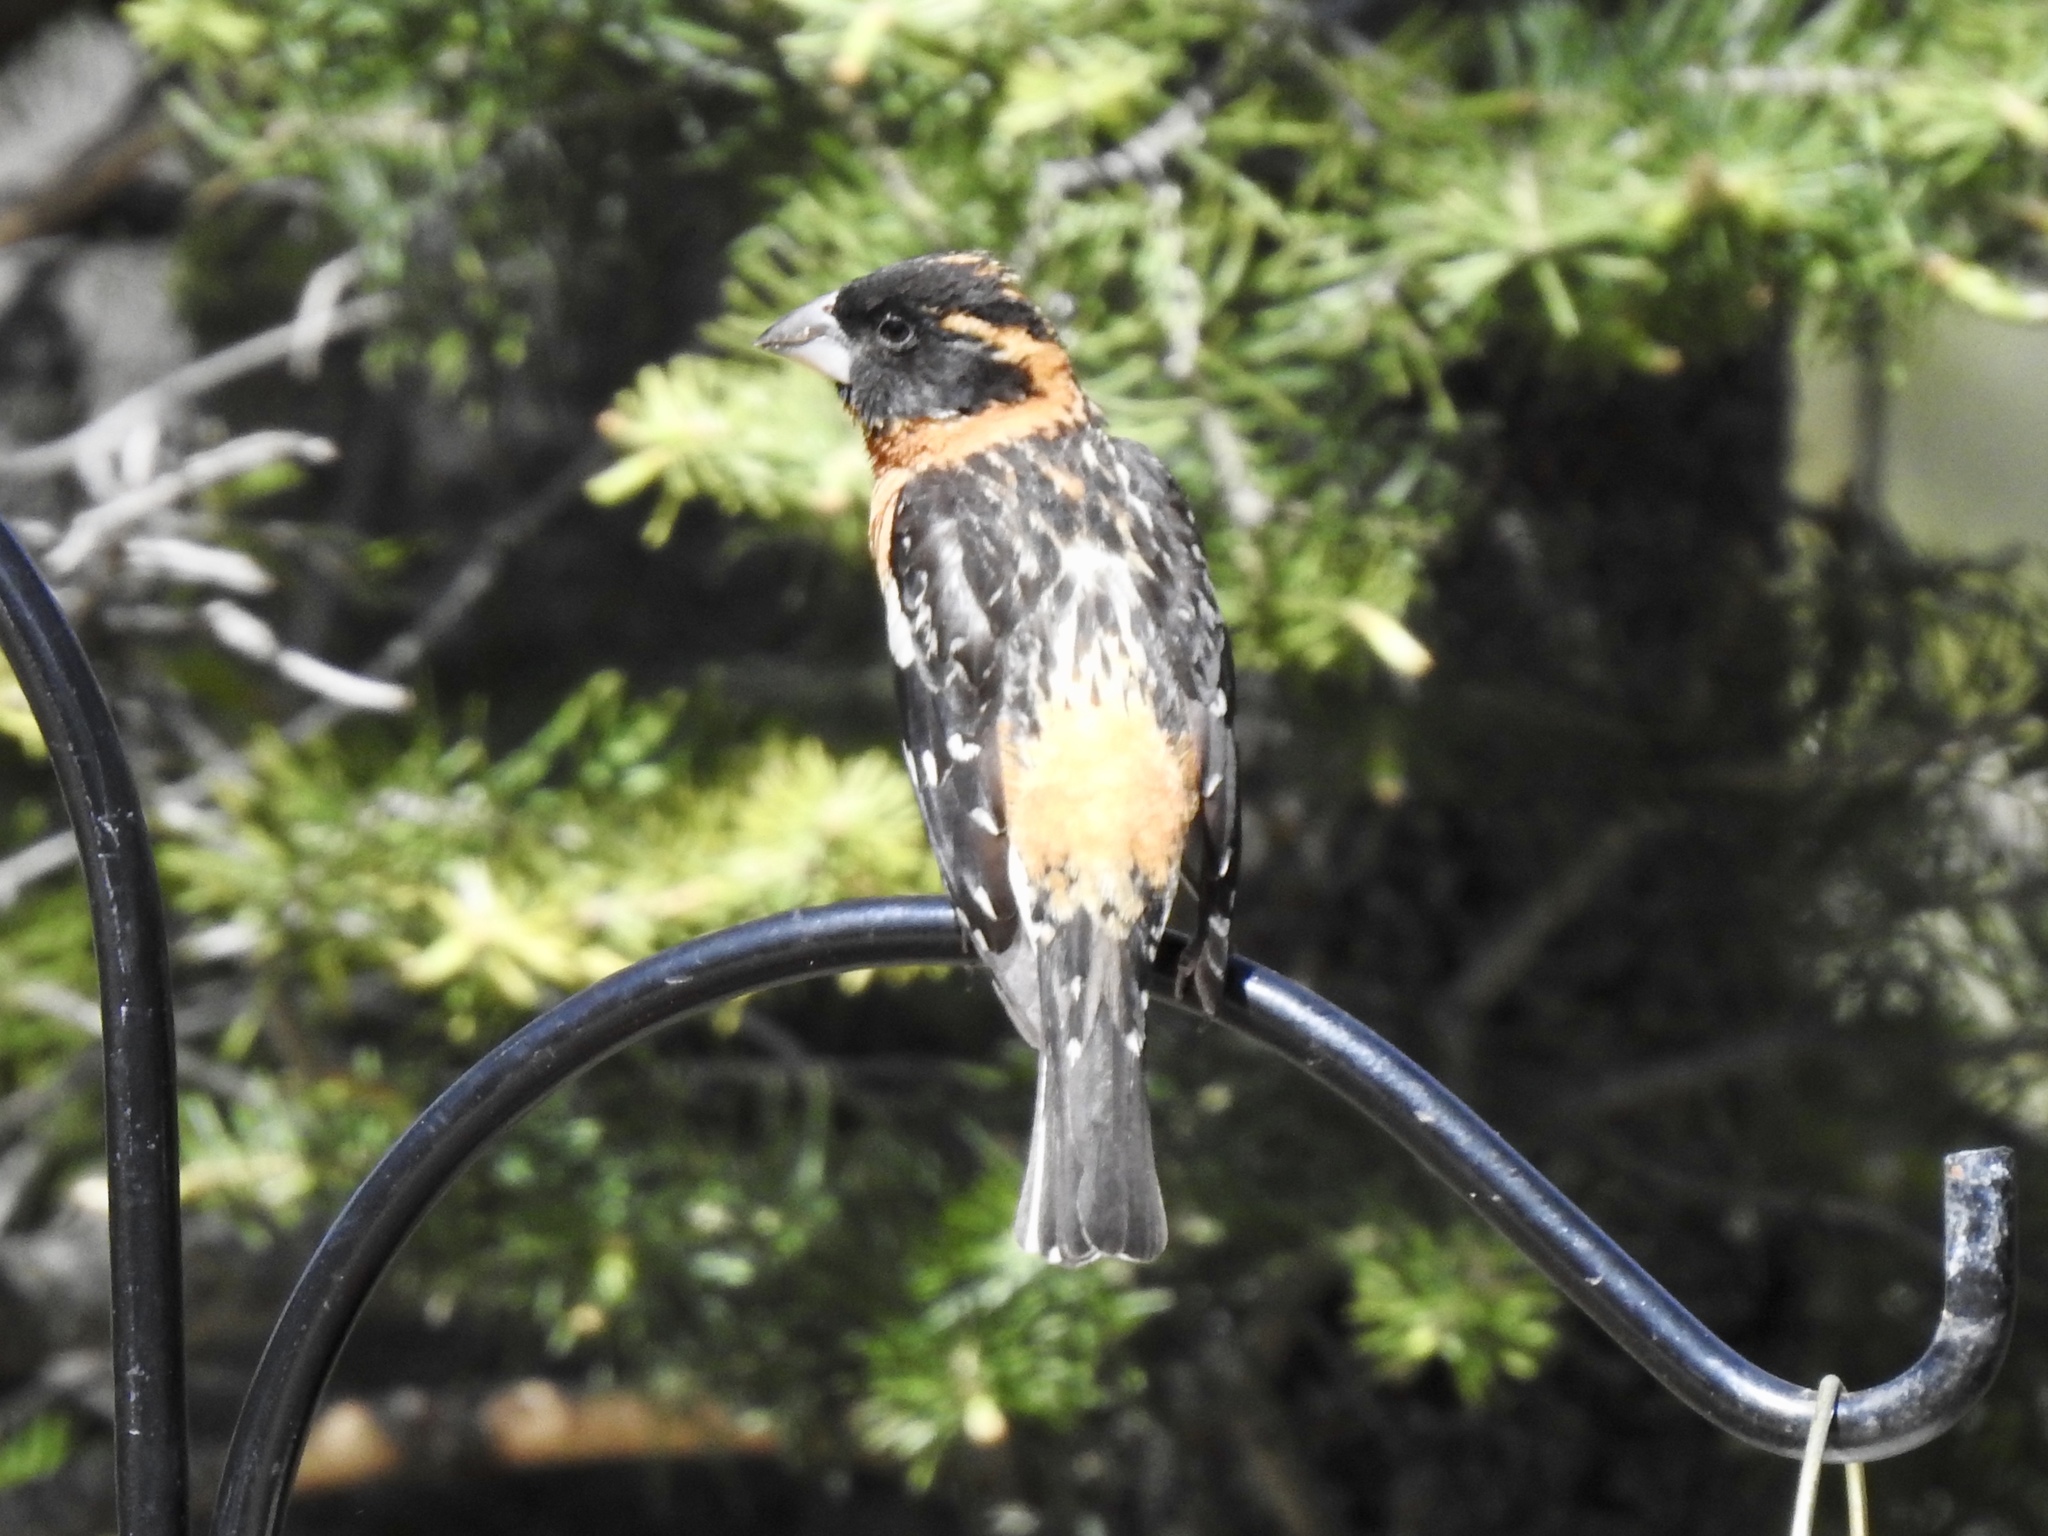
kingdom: Animalia
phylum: Chordata
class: Aves
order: Passeriformes
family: Cardinalidae
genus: Pheucticus
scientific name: Pheucticus melanocephalus
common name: Black-headed grosbeak
